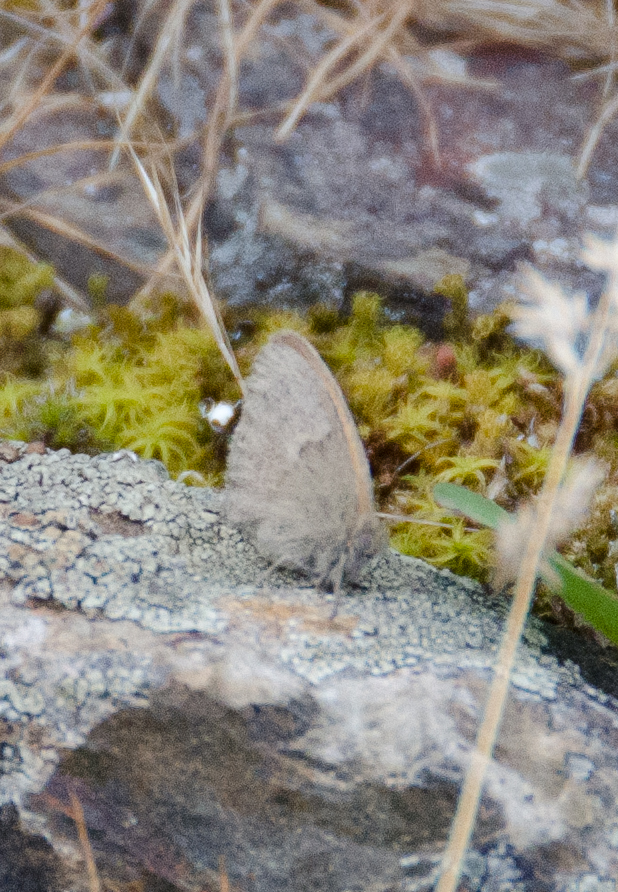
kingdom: Animalia
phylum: Arthropoda
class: Insecta
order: Lepidoptera
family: Nymphalidae
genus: Coenonympha
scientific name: Coenonympha pamphilus
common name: Small heath
